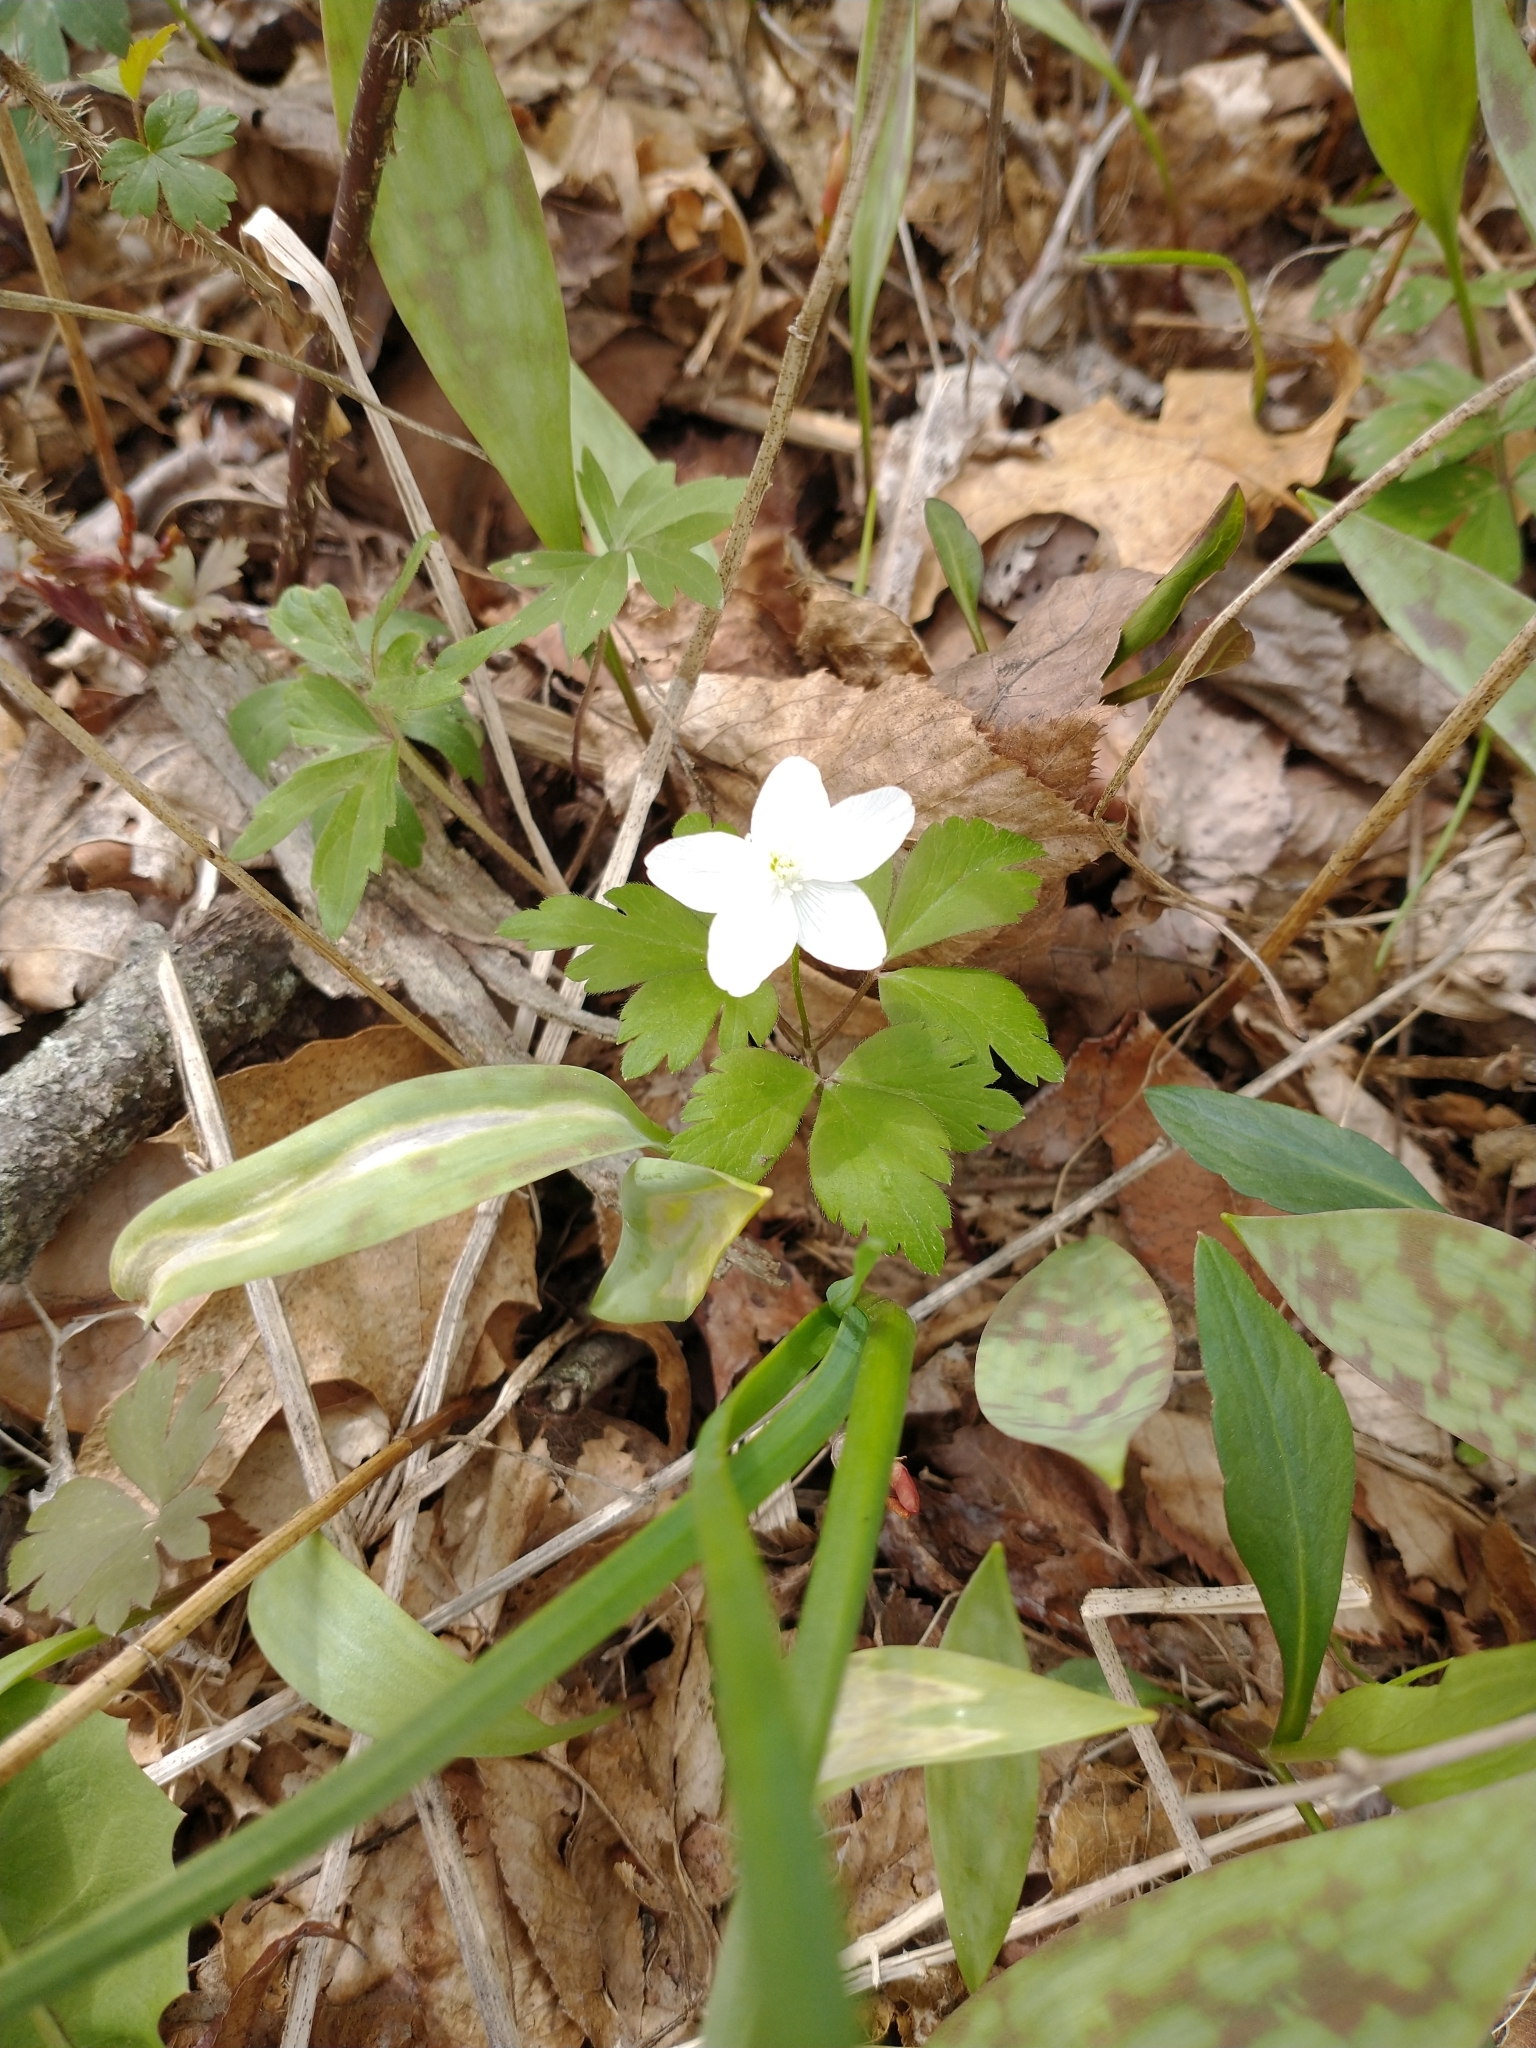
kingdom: Plantae
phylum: Tracheophyta
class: Magnoliopsida
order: Ranunculales
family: Ranunculaceae
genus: Anemone
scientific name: Anemone quinquefolia
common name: Wood anemone
